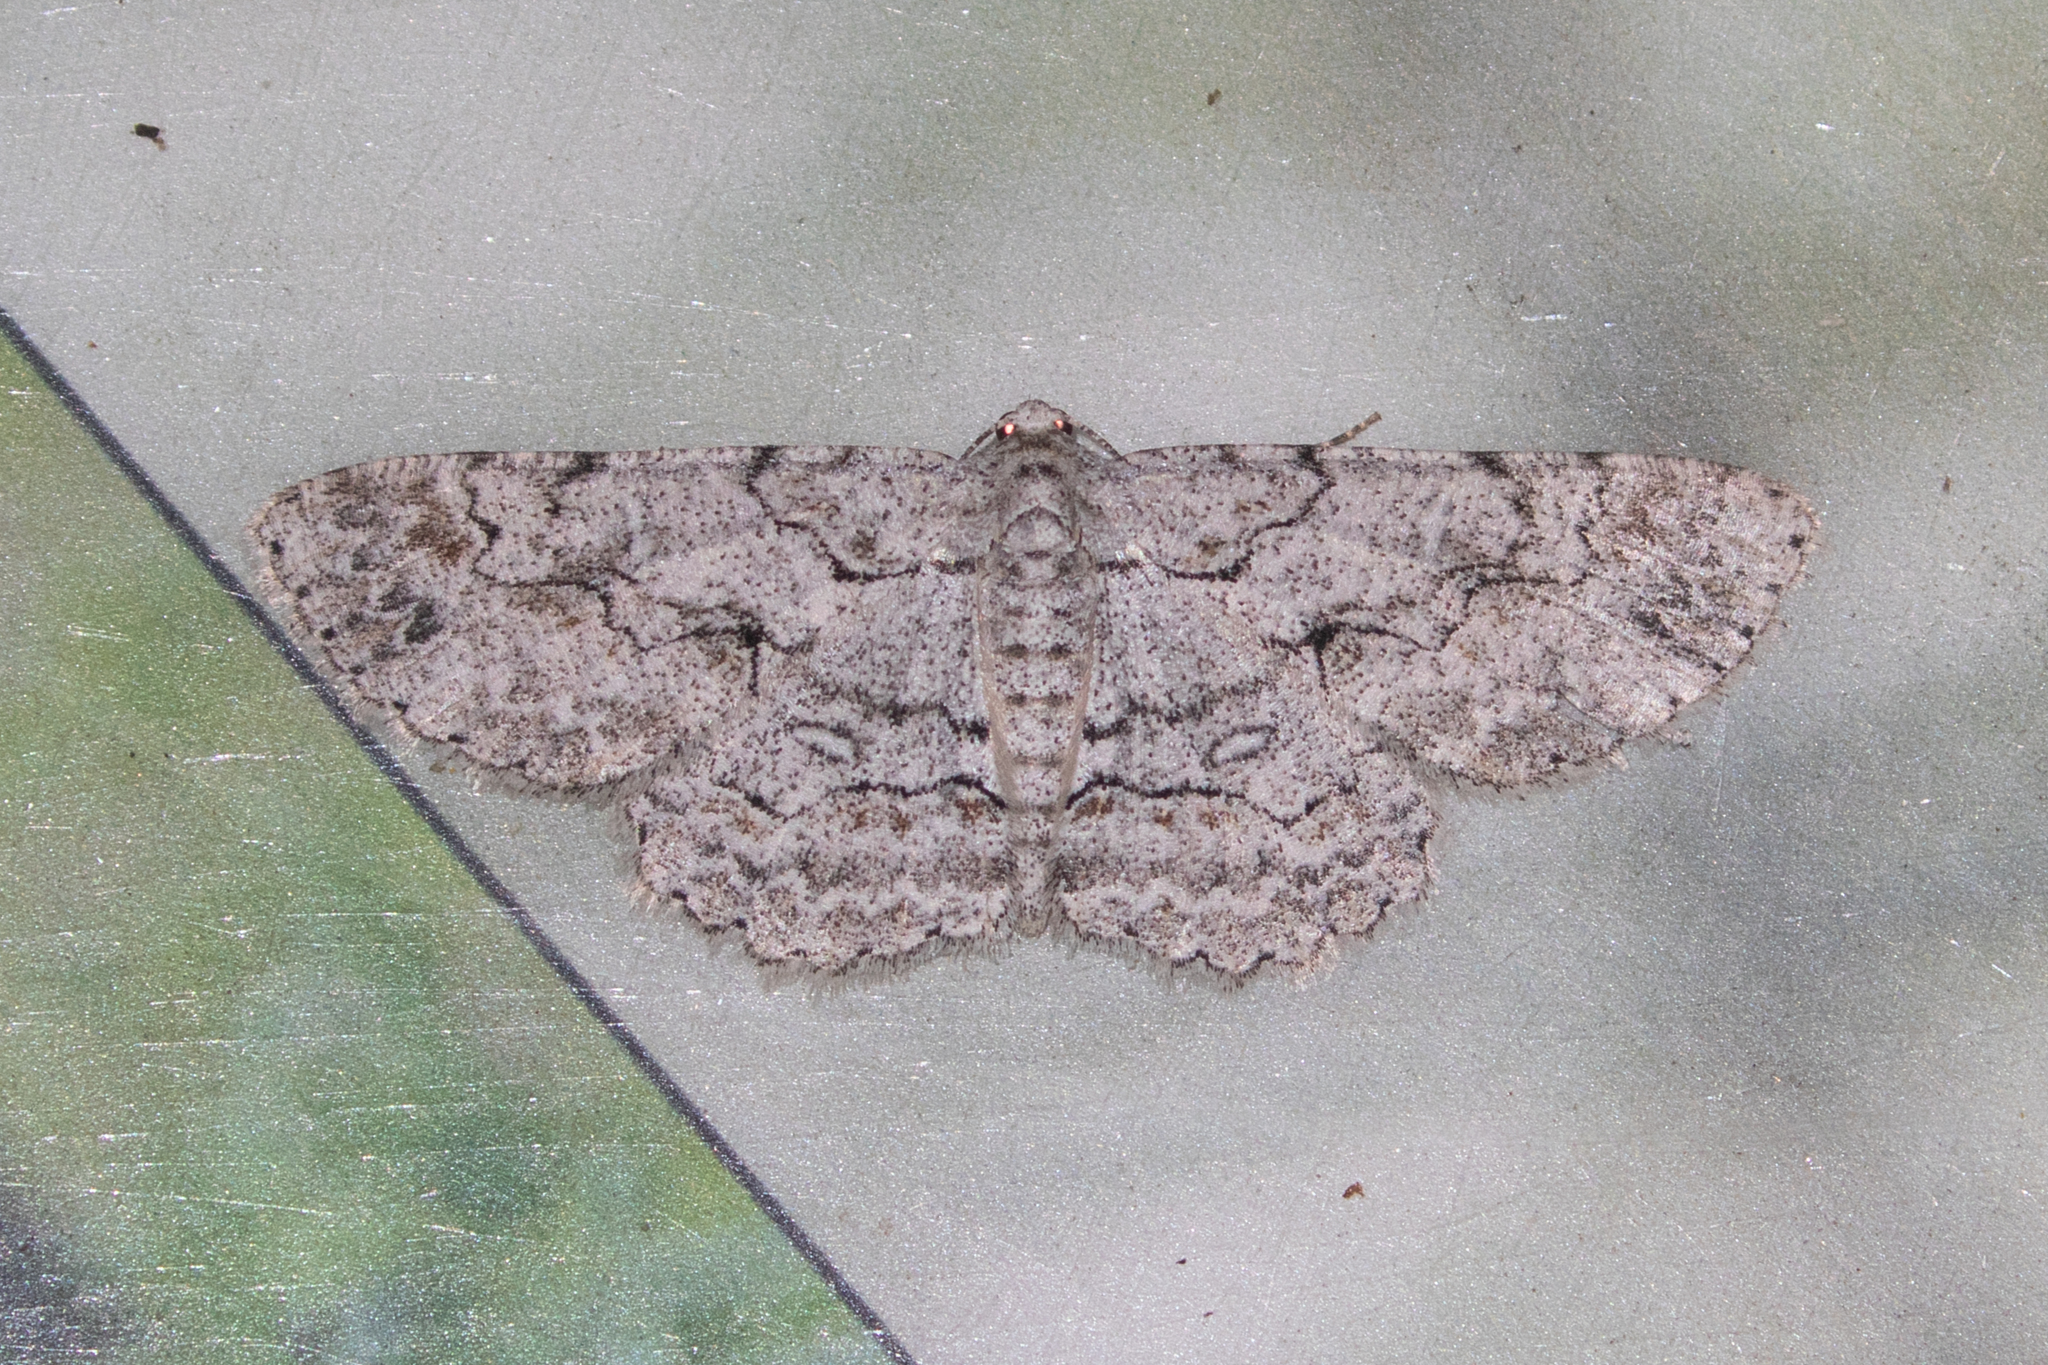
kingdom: Animalia
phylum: Arthropoda
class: Insecta
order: Lepidoptera
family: Geometridae
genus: Iridopsis
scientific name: Iridopsis defectaria
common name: Brown-shaded gray
